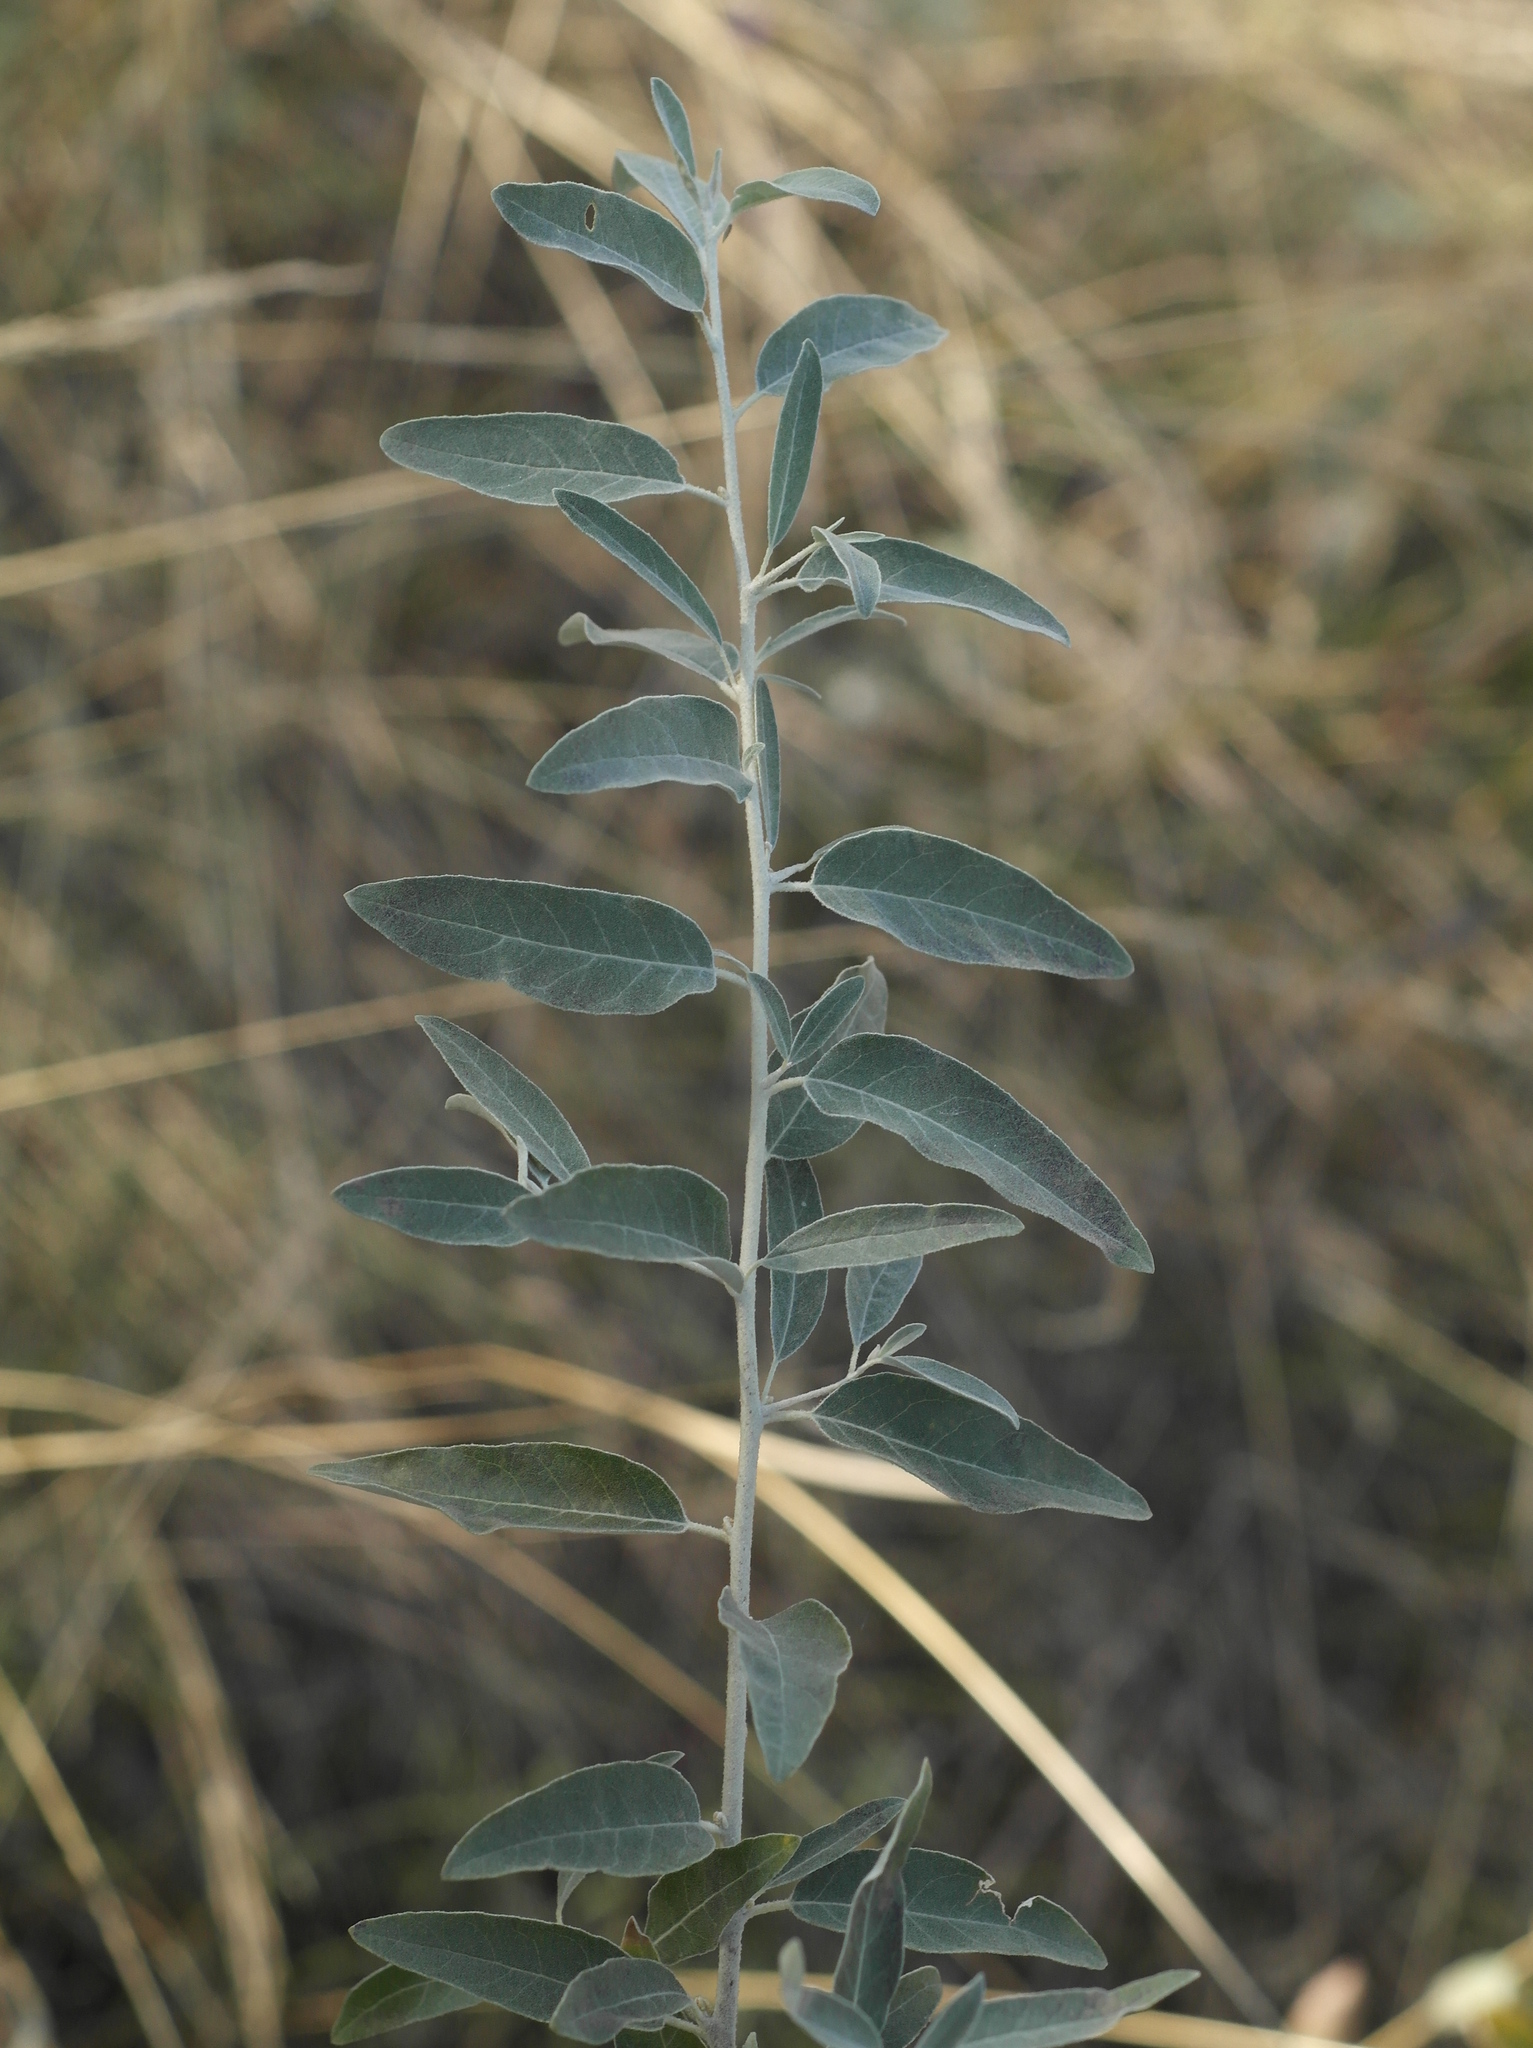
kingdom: Plantae
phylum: Tracheophyta
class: Magnoliopsida
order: Rosales
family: Elaeagnaceae
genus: Elaeagnus
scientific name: Elaeagnus angustifolia
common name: Russian olive
